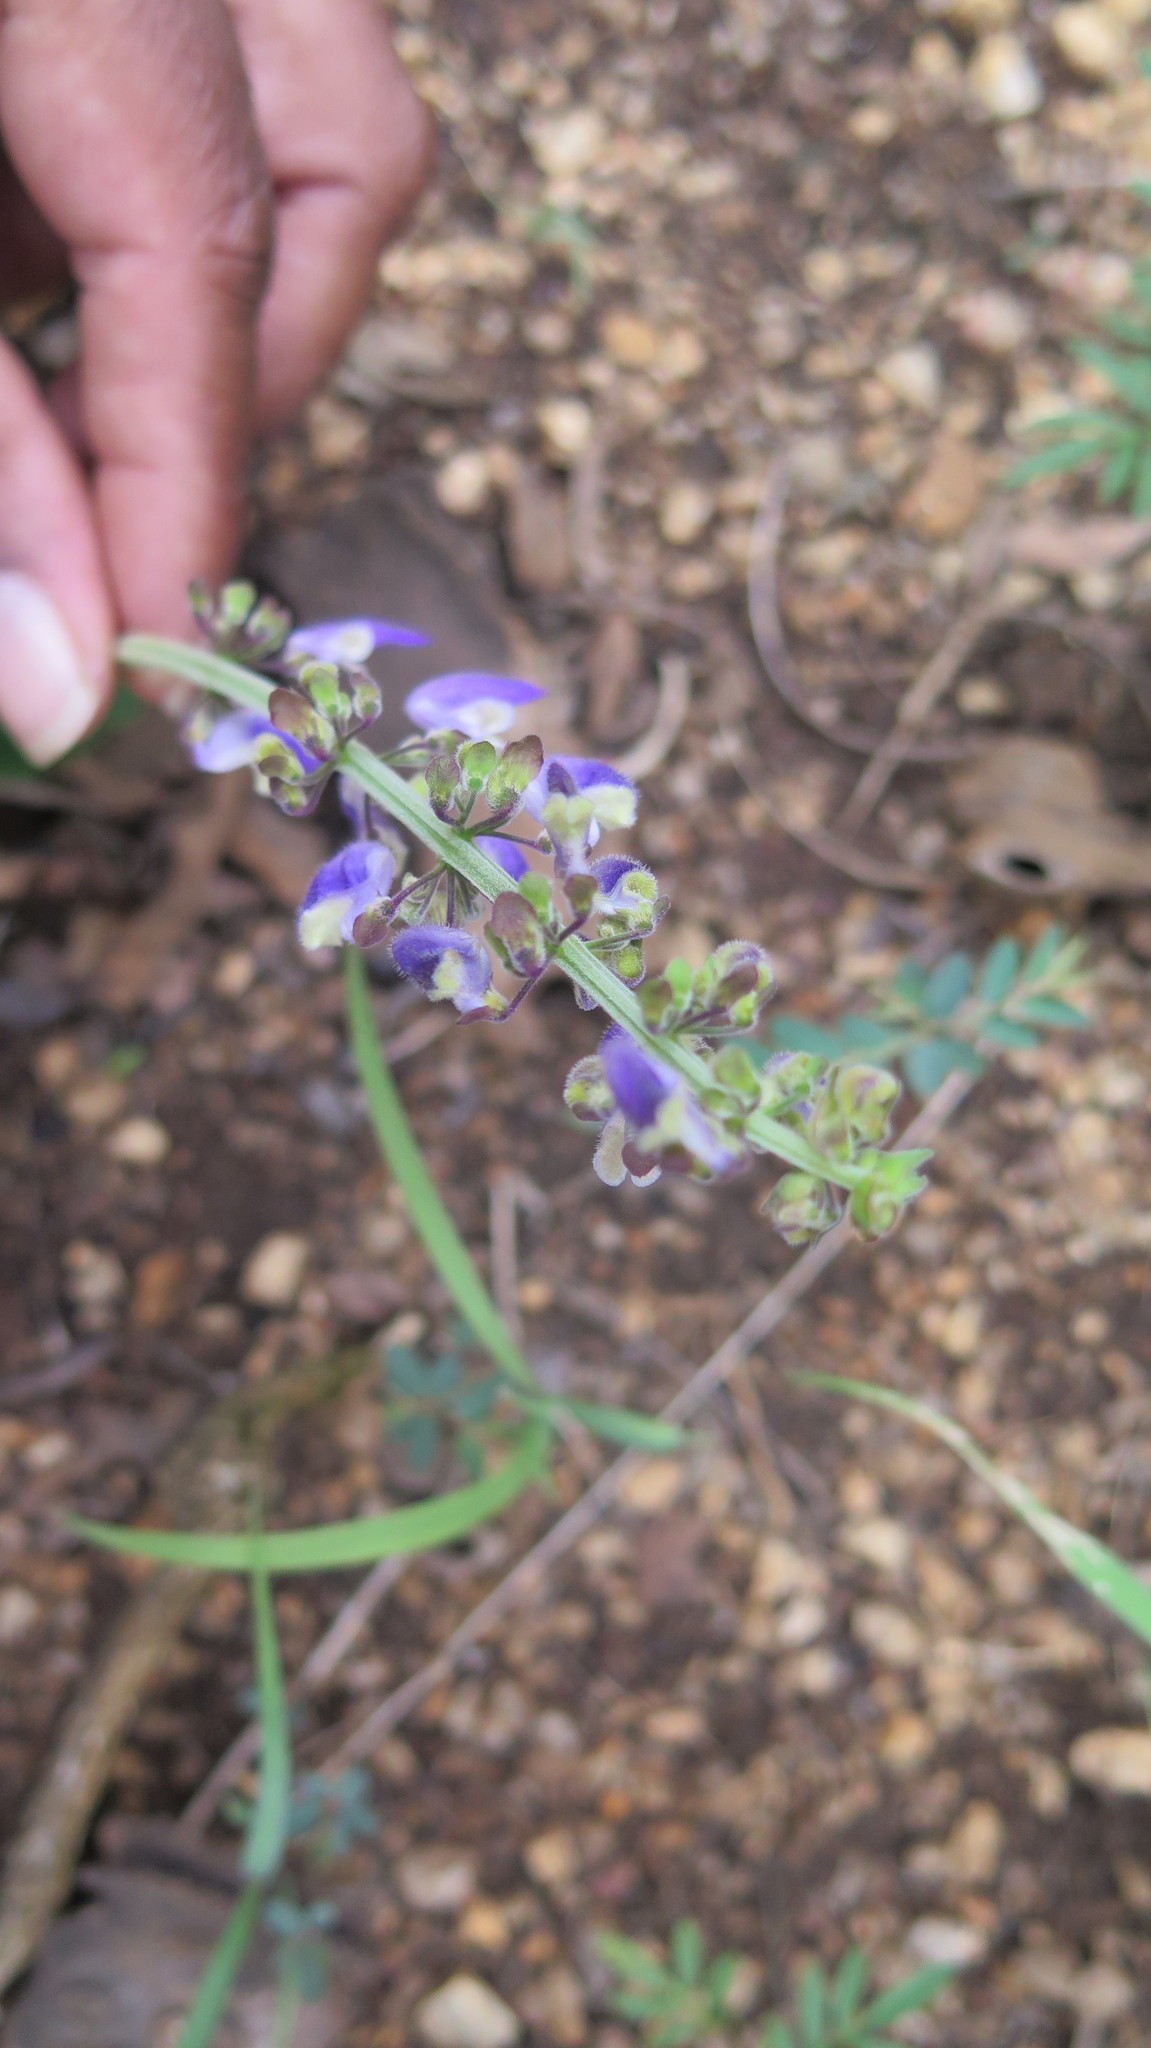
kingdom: Plantae
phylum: Tracheophyta
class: Magnoliopsida
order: Lamiales
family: Lamiaceae
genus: Coleus
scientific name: Coleus bojeri
